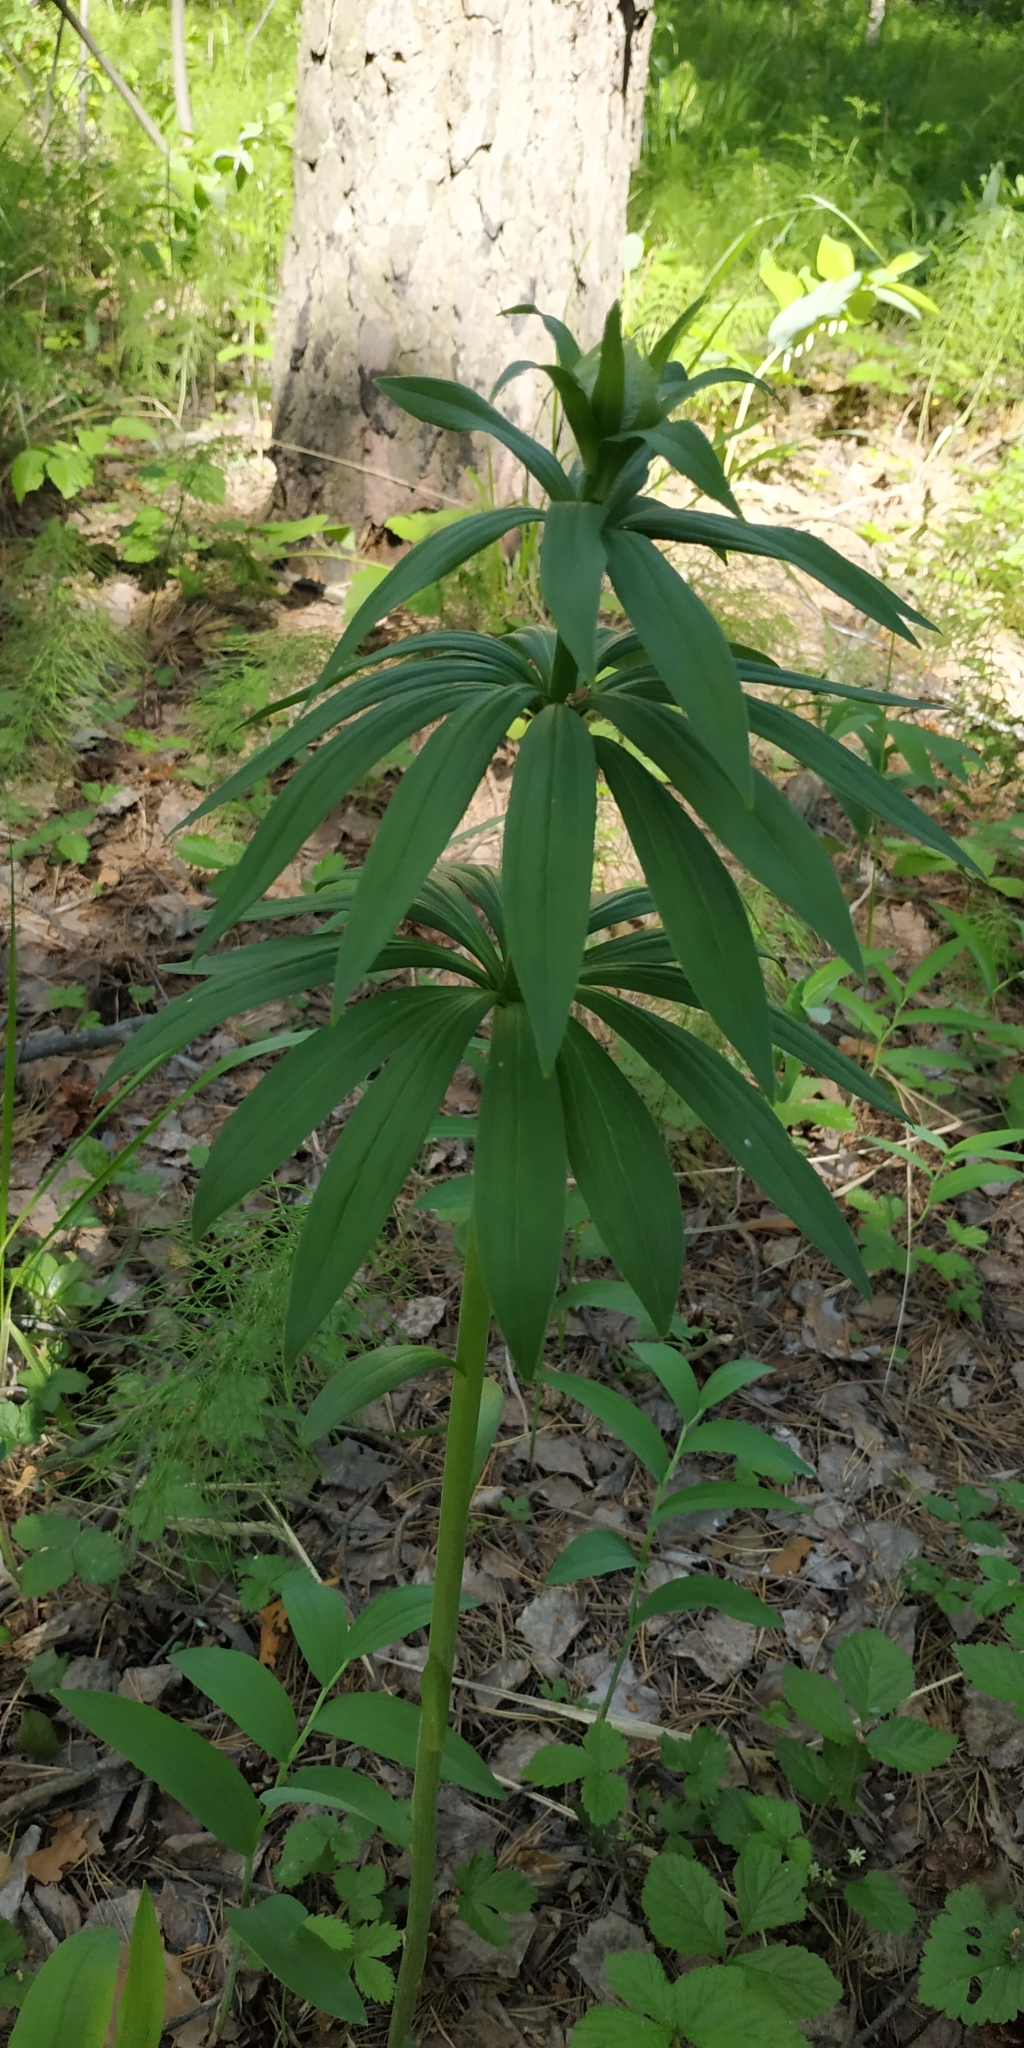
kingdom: Plantae
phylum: Tracheophyta
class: Liliopsida
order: Liliales
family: Liliaceae
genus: Lilium
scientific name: Lilium martagon
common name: Martagon lily
